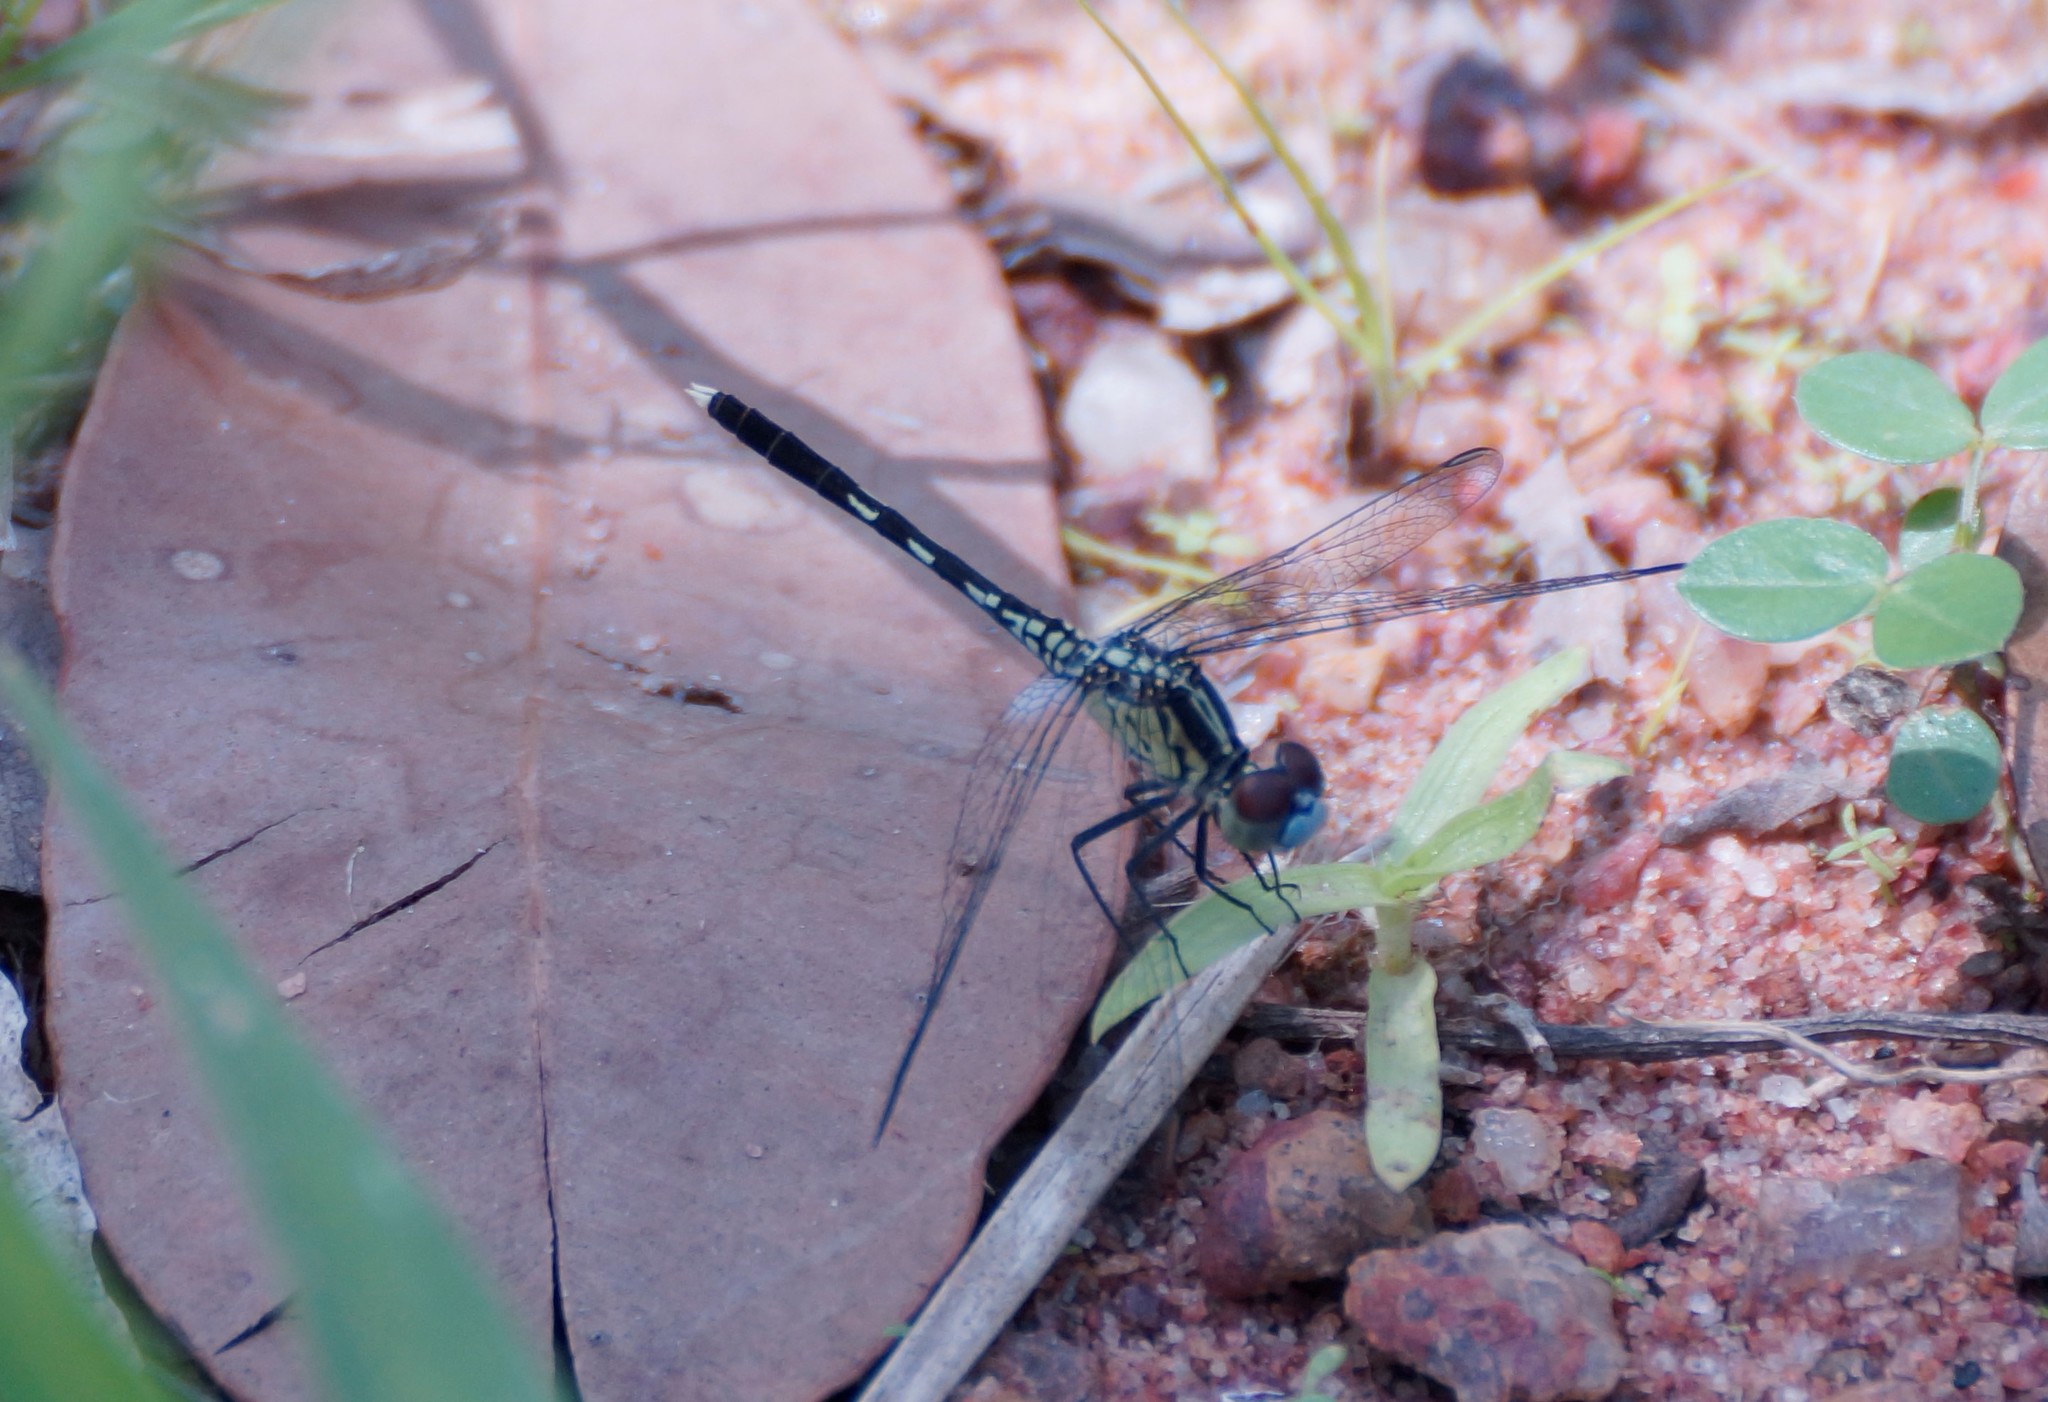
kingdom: Animalia
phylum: Arthropoda
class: Insecta
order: Odonata
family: Libellulidae
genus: Diplacodes
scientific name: Diplacodes trivialis
